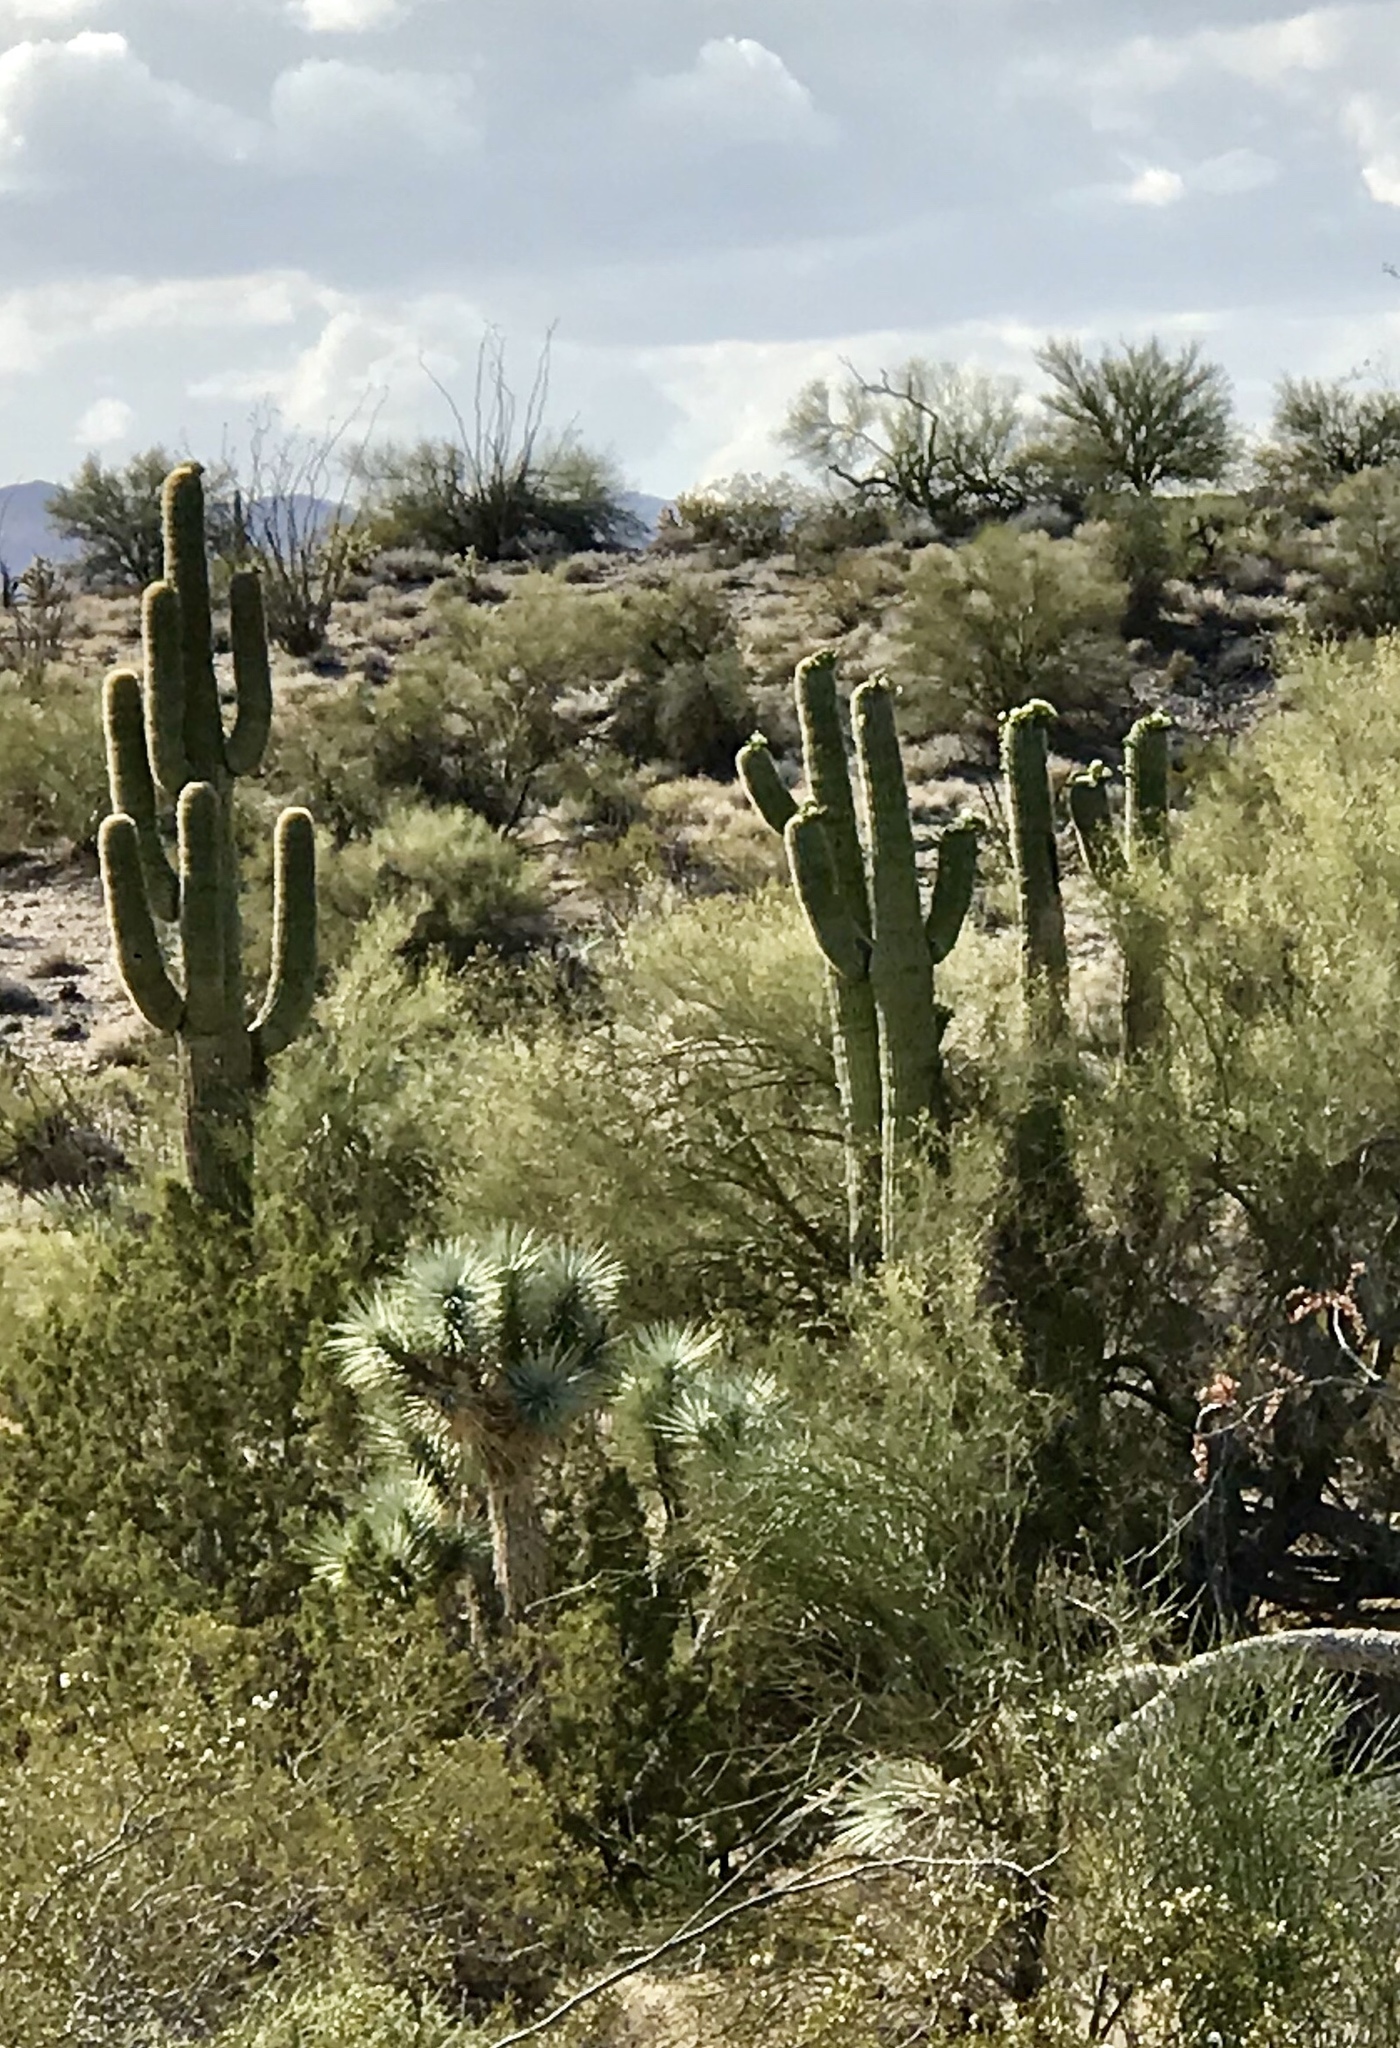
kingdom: Plantae
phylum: Tracheophyta
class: Magnoliopsida
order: Caryophyllales
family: Cactaceae
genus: Carnegiea
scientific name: Carnegiea gigantea
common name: Saguaro
